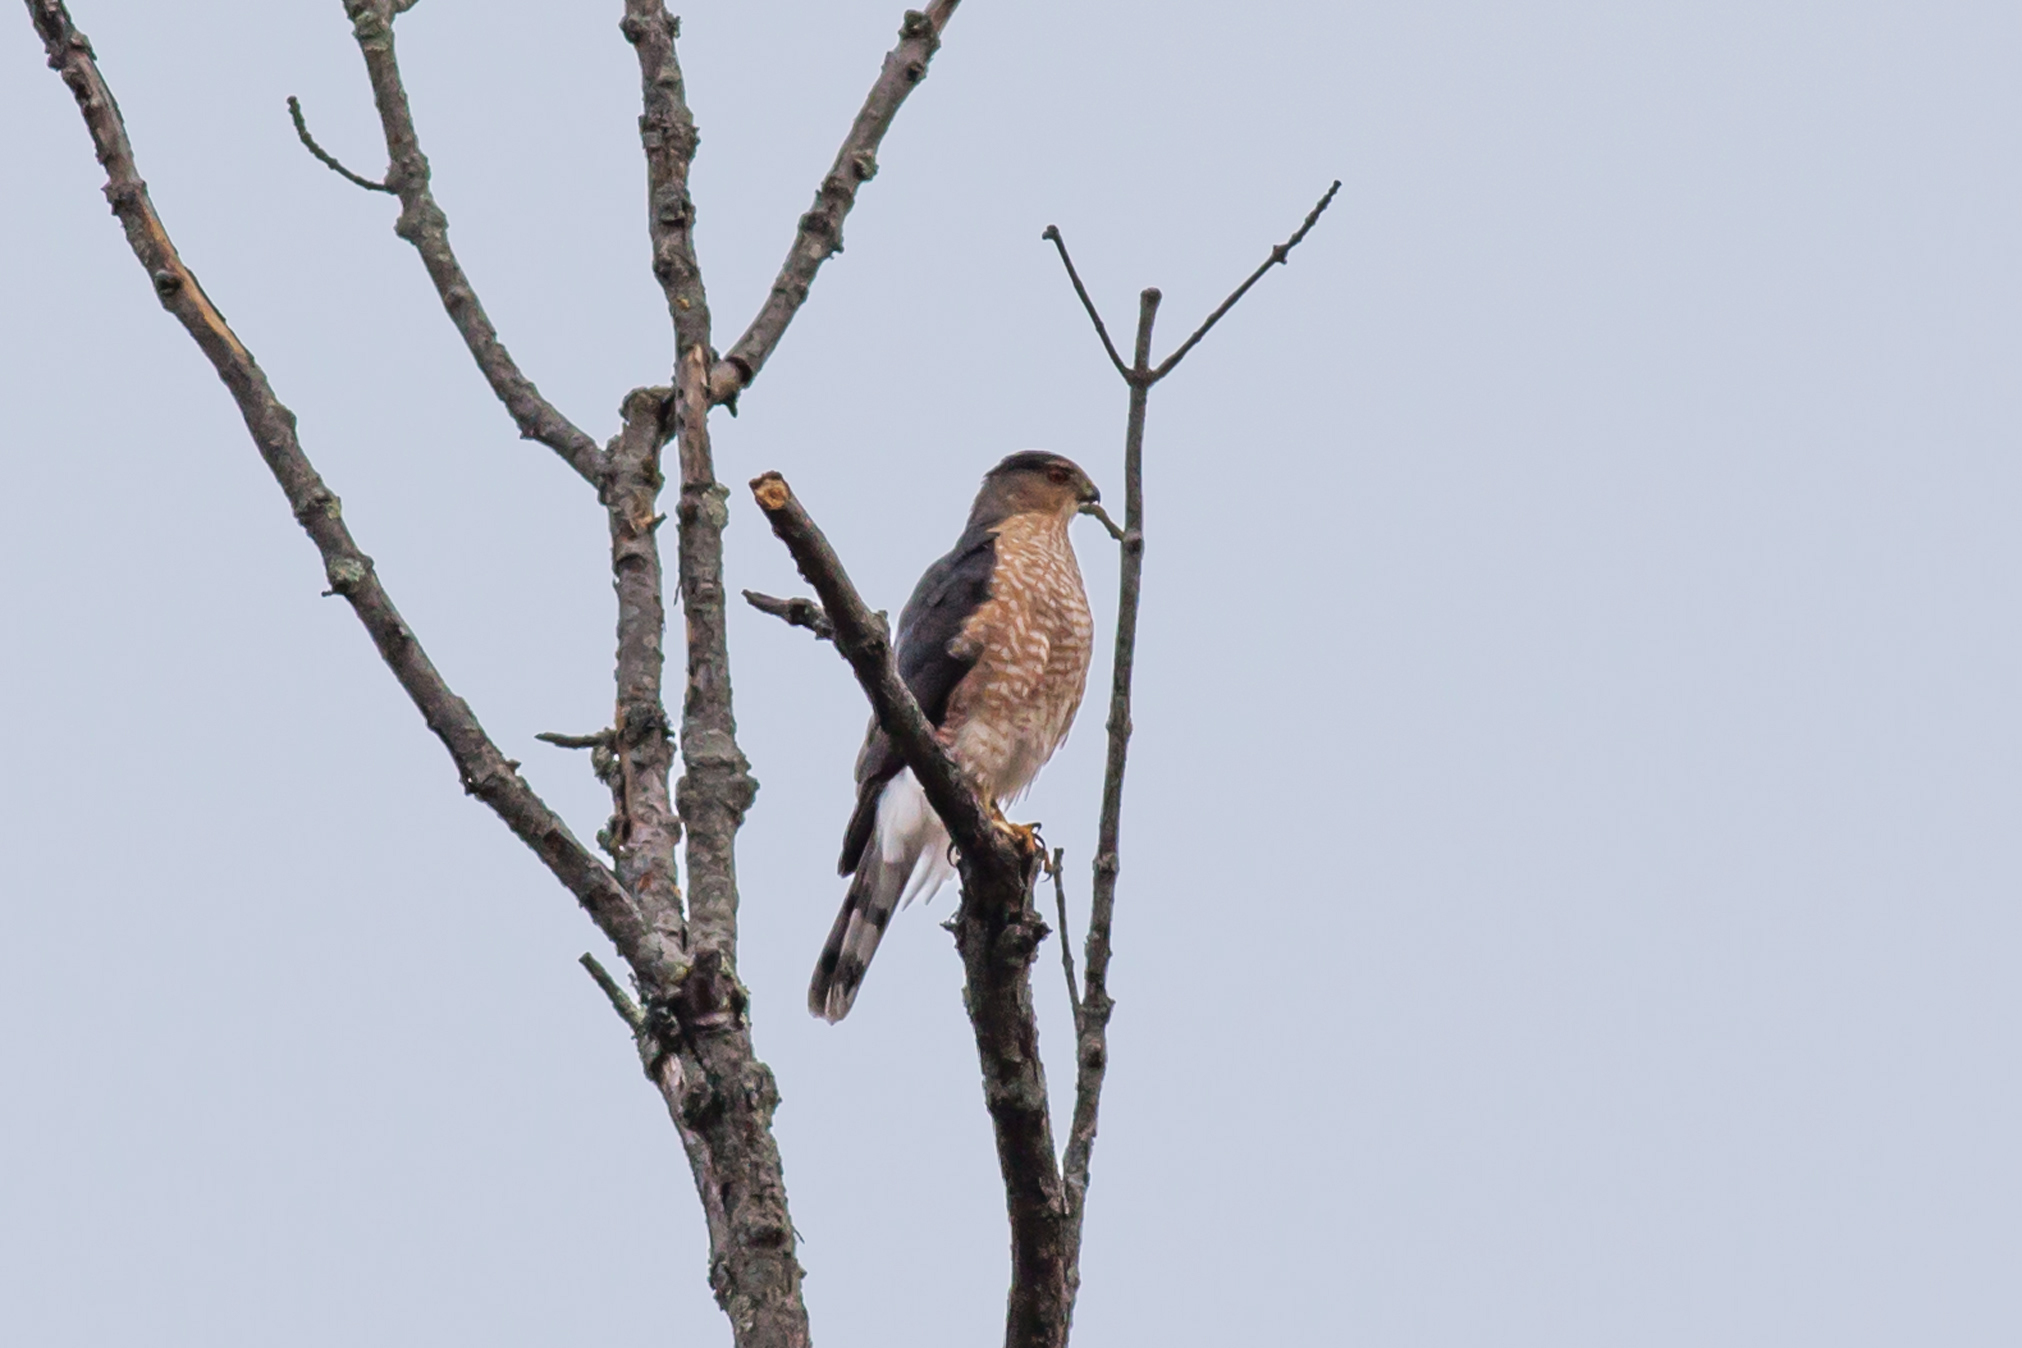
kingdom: Animalia
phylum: Chordata
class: Aves
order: Accipitriformes
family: Accipitridae
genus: Accipiter
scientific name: Accipiter cooperii
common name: Cooper's hawk
